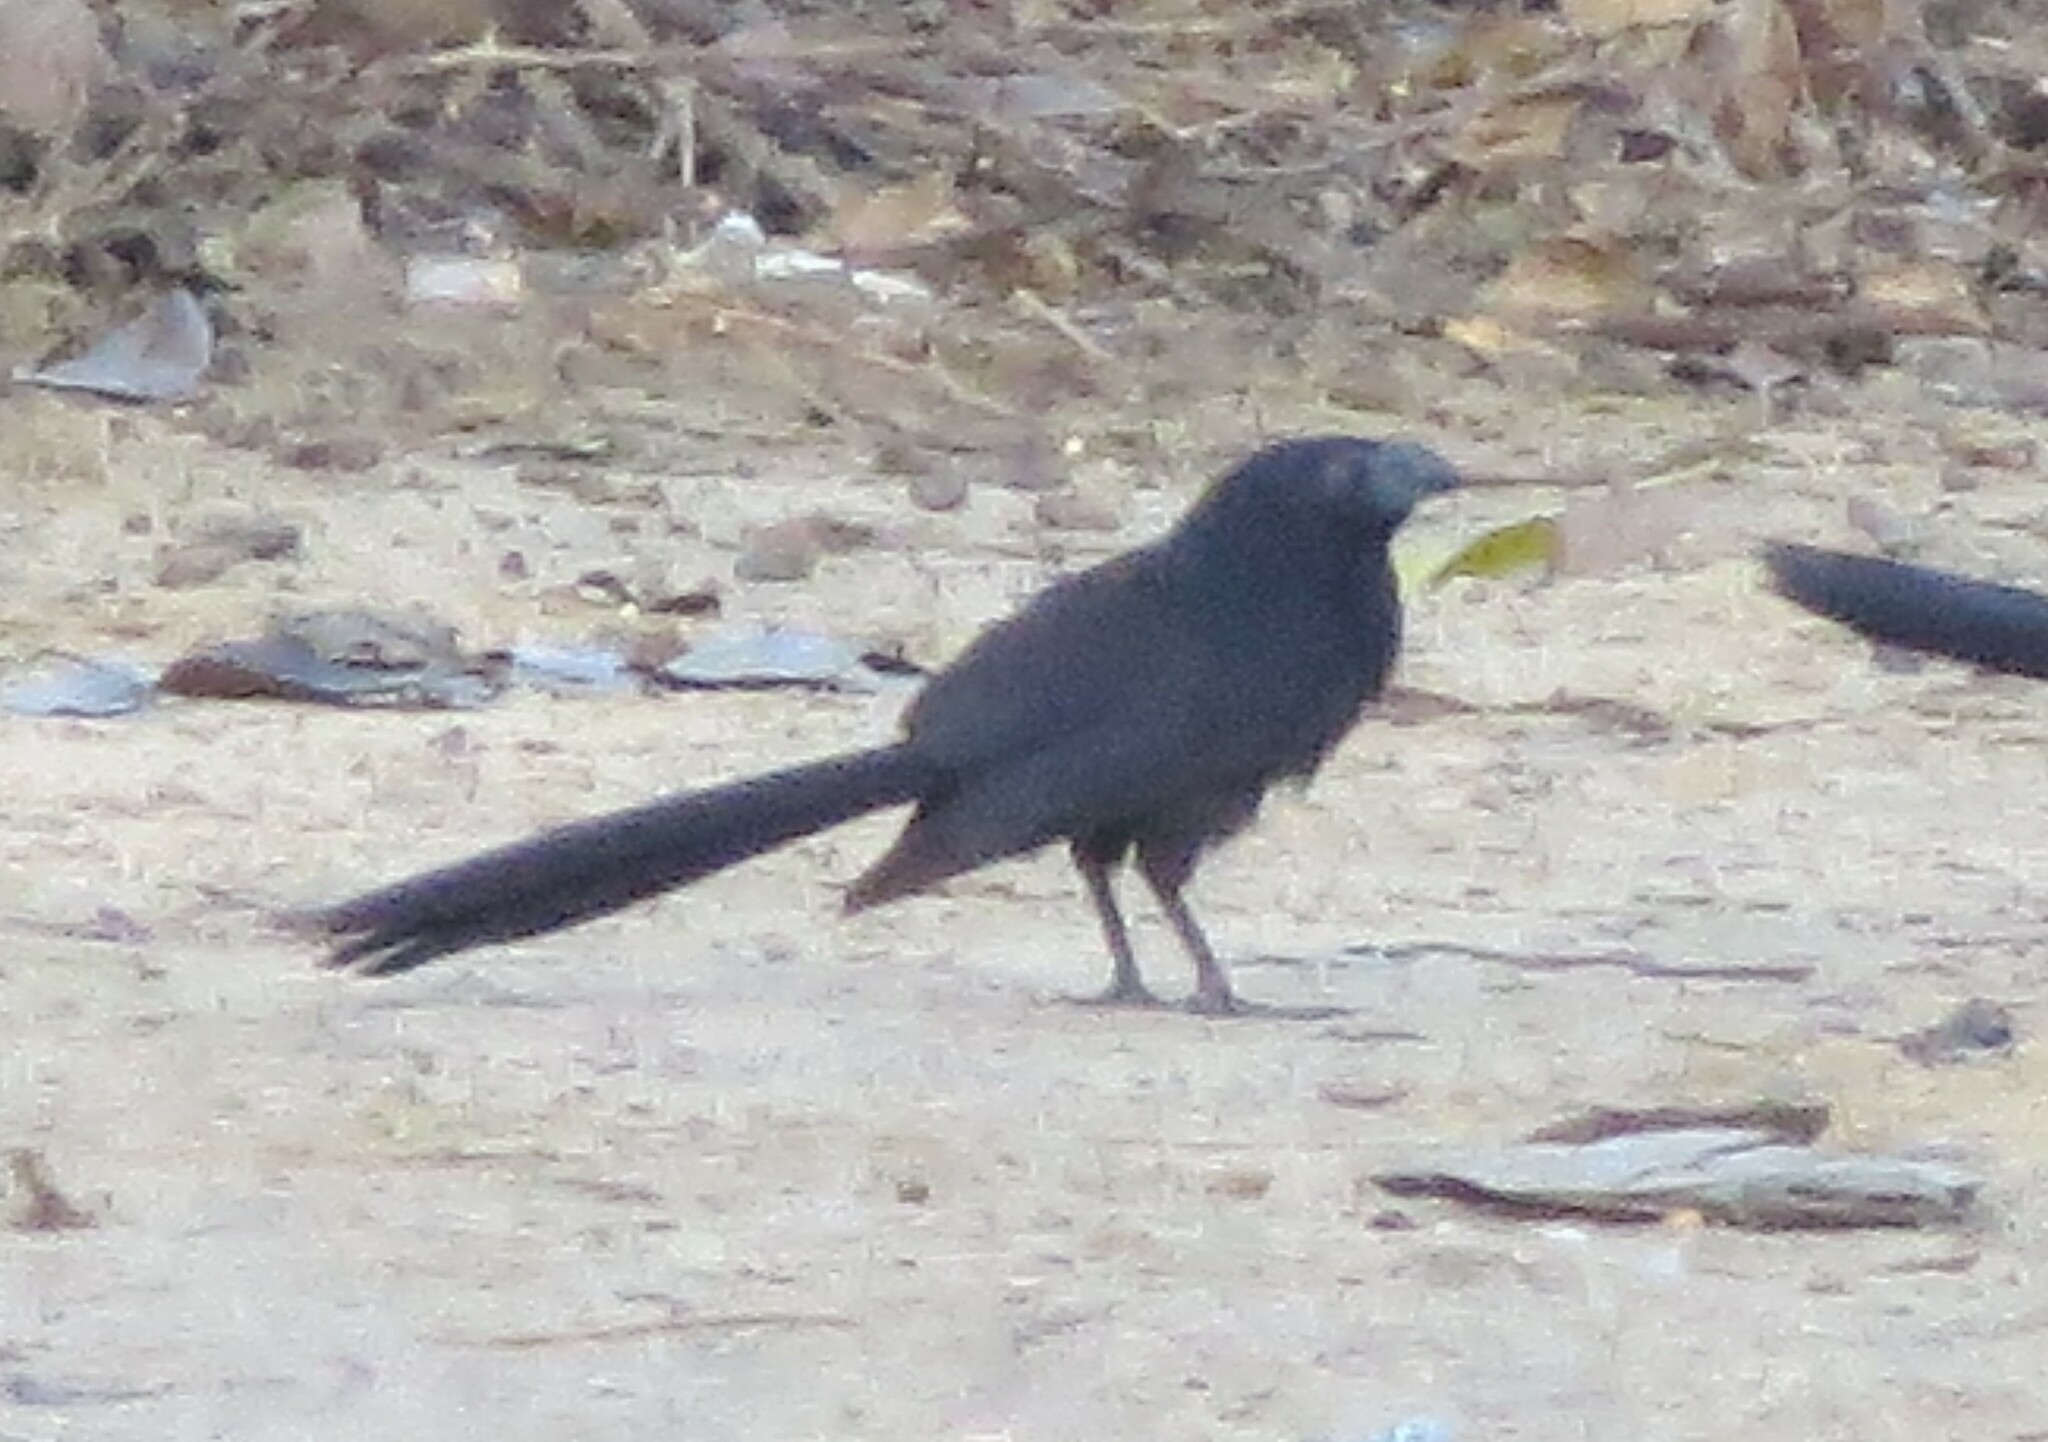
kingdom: Animalia
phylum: Chordata
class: Aves
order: Cuculiformes
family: Cuculidae
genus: Crotophaga
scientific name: Crotophaga ani
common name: Smooth-billed ani
